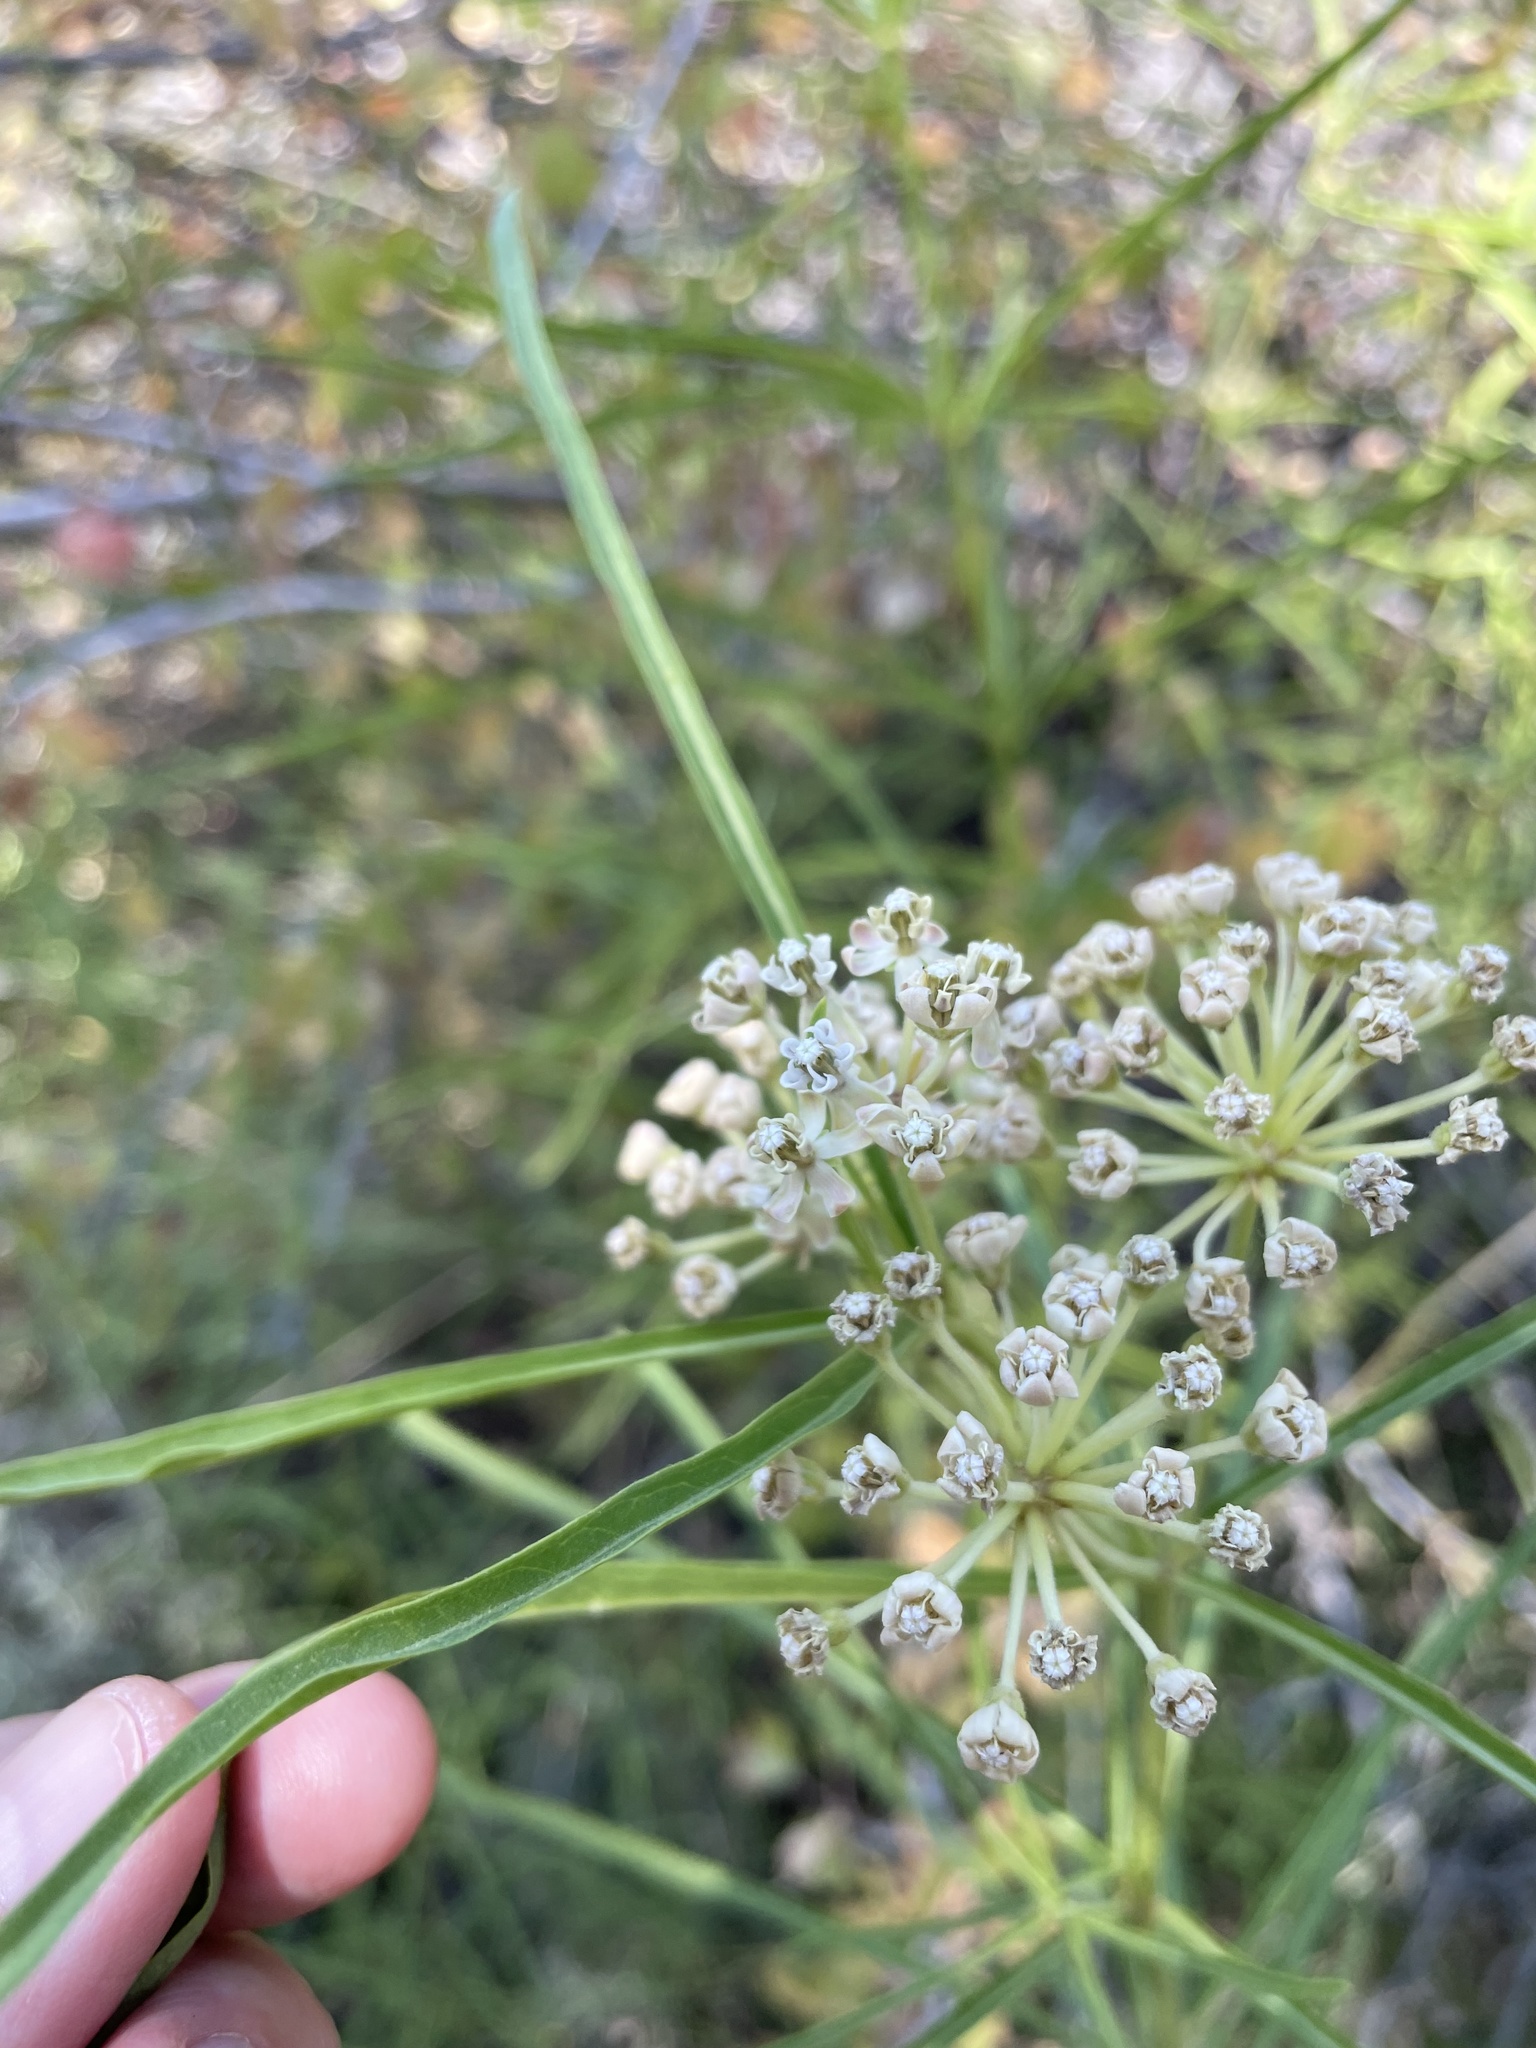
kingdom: Plantae
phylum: Tracheophyta
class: Magnoliopsida
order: Gentianales
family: Apocynaceae
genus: Asclepias
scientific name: Asclepias fascicularis
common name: Mexican milkweed
